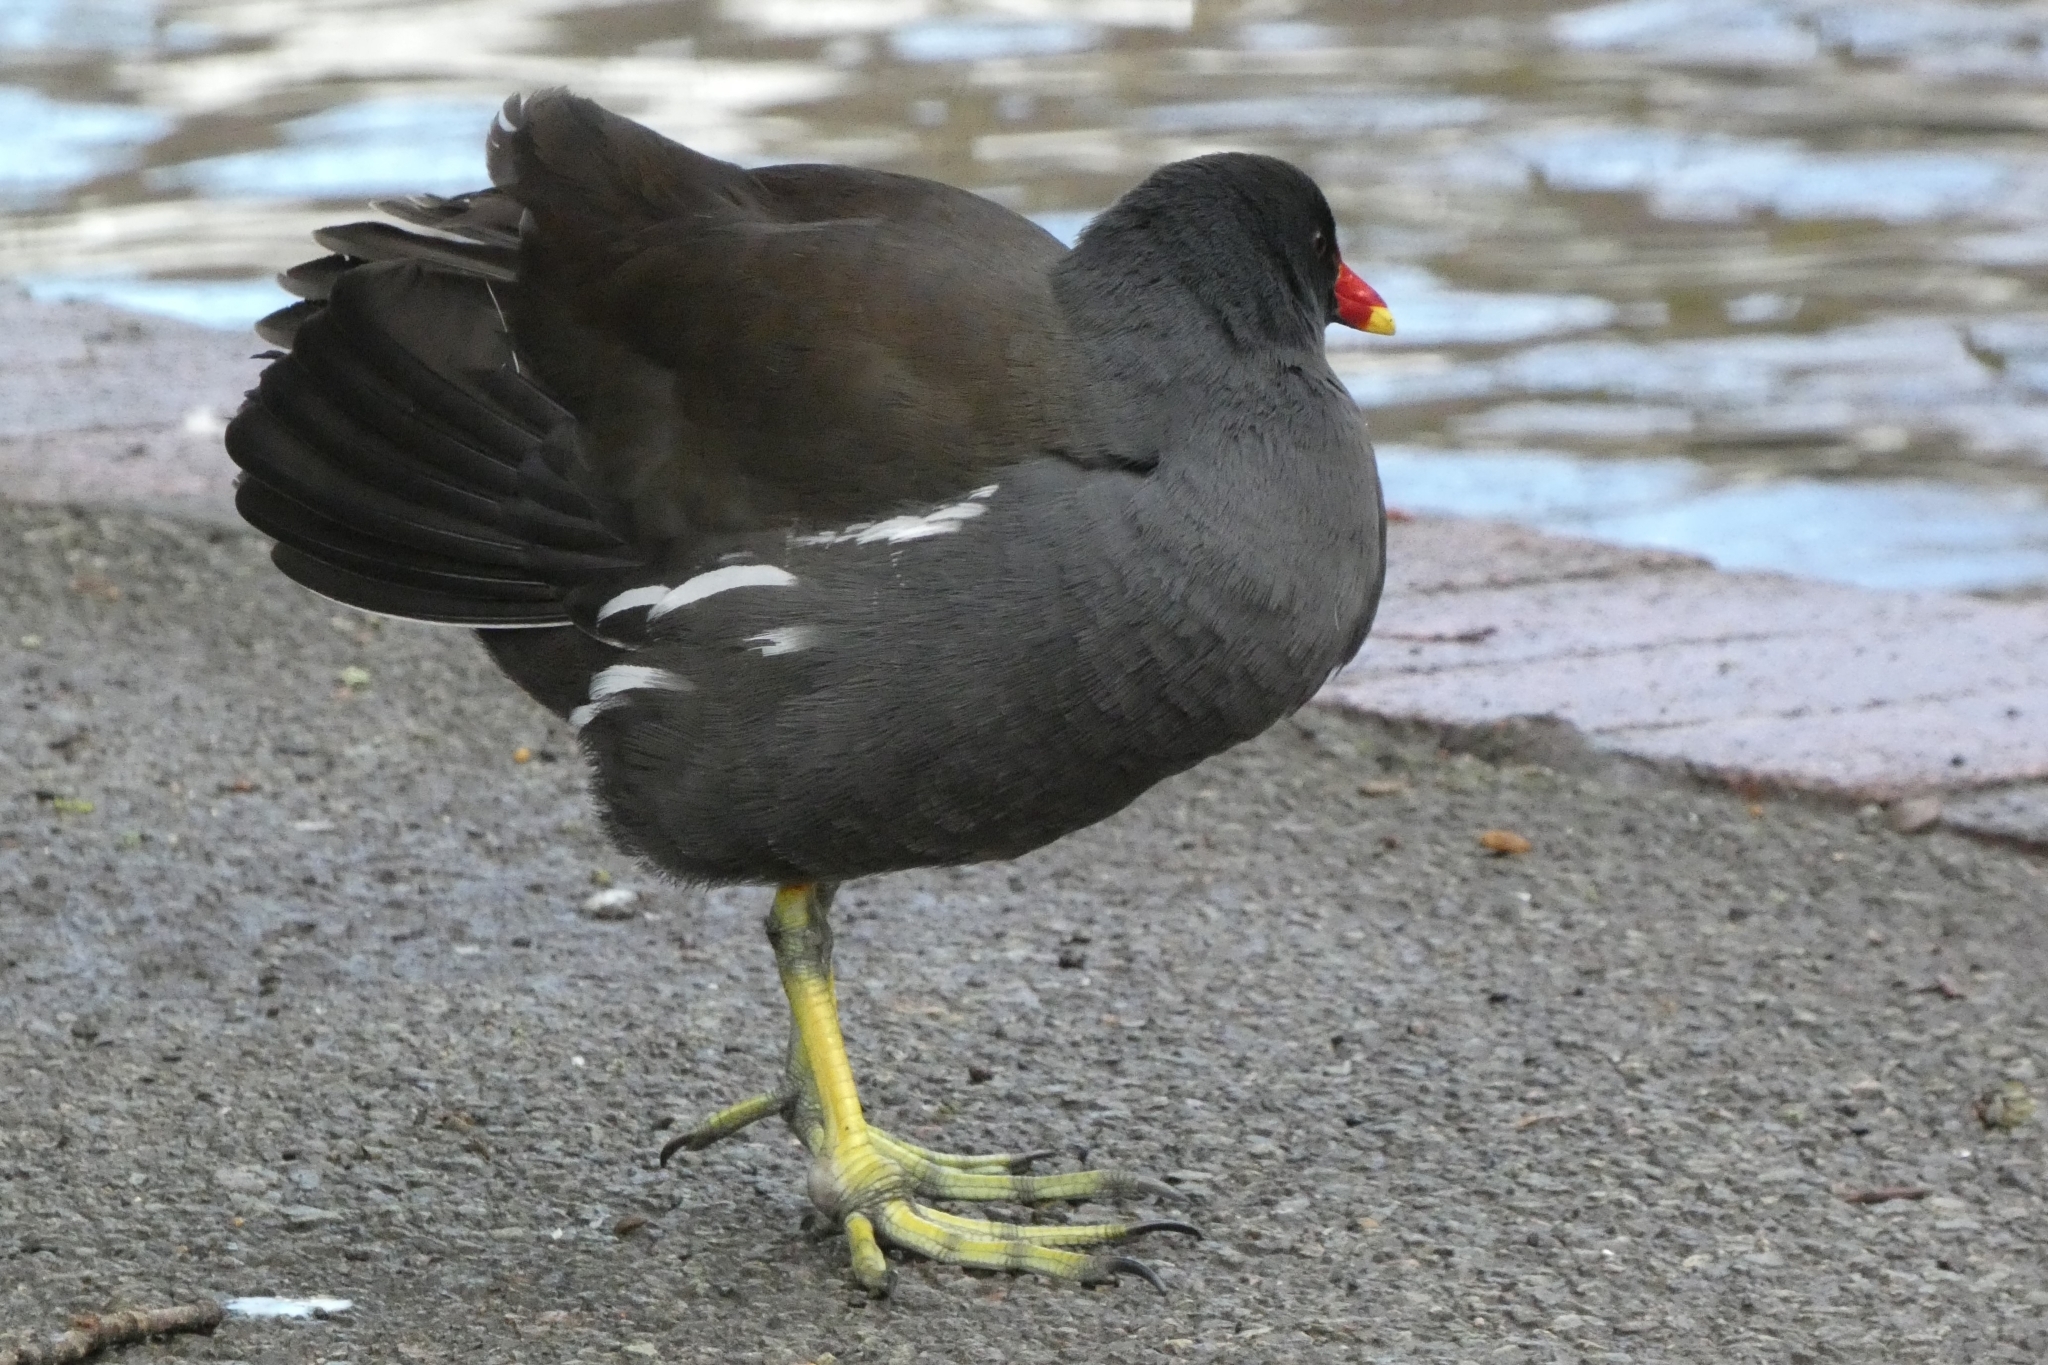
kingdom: Animalia
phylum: Chordata
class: Aves
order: Gruiformes
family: Rallidae
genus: Gallinula
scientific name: Gallinula chloropus
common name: Common moorhen
